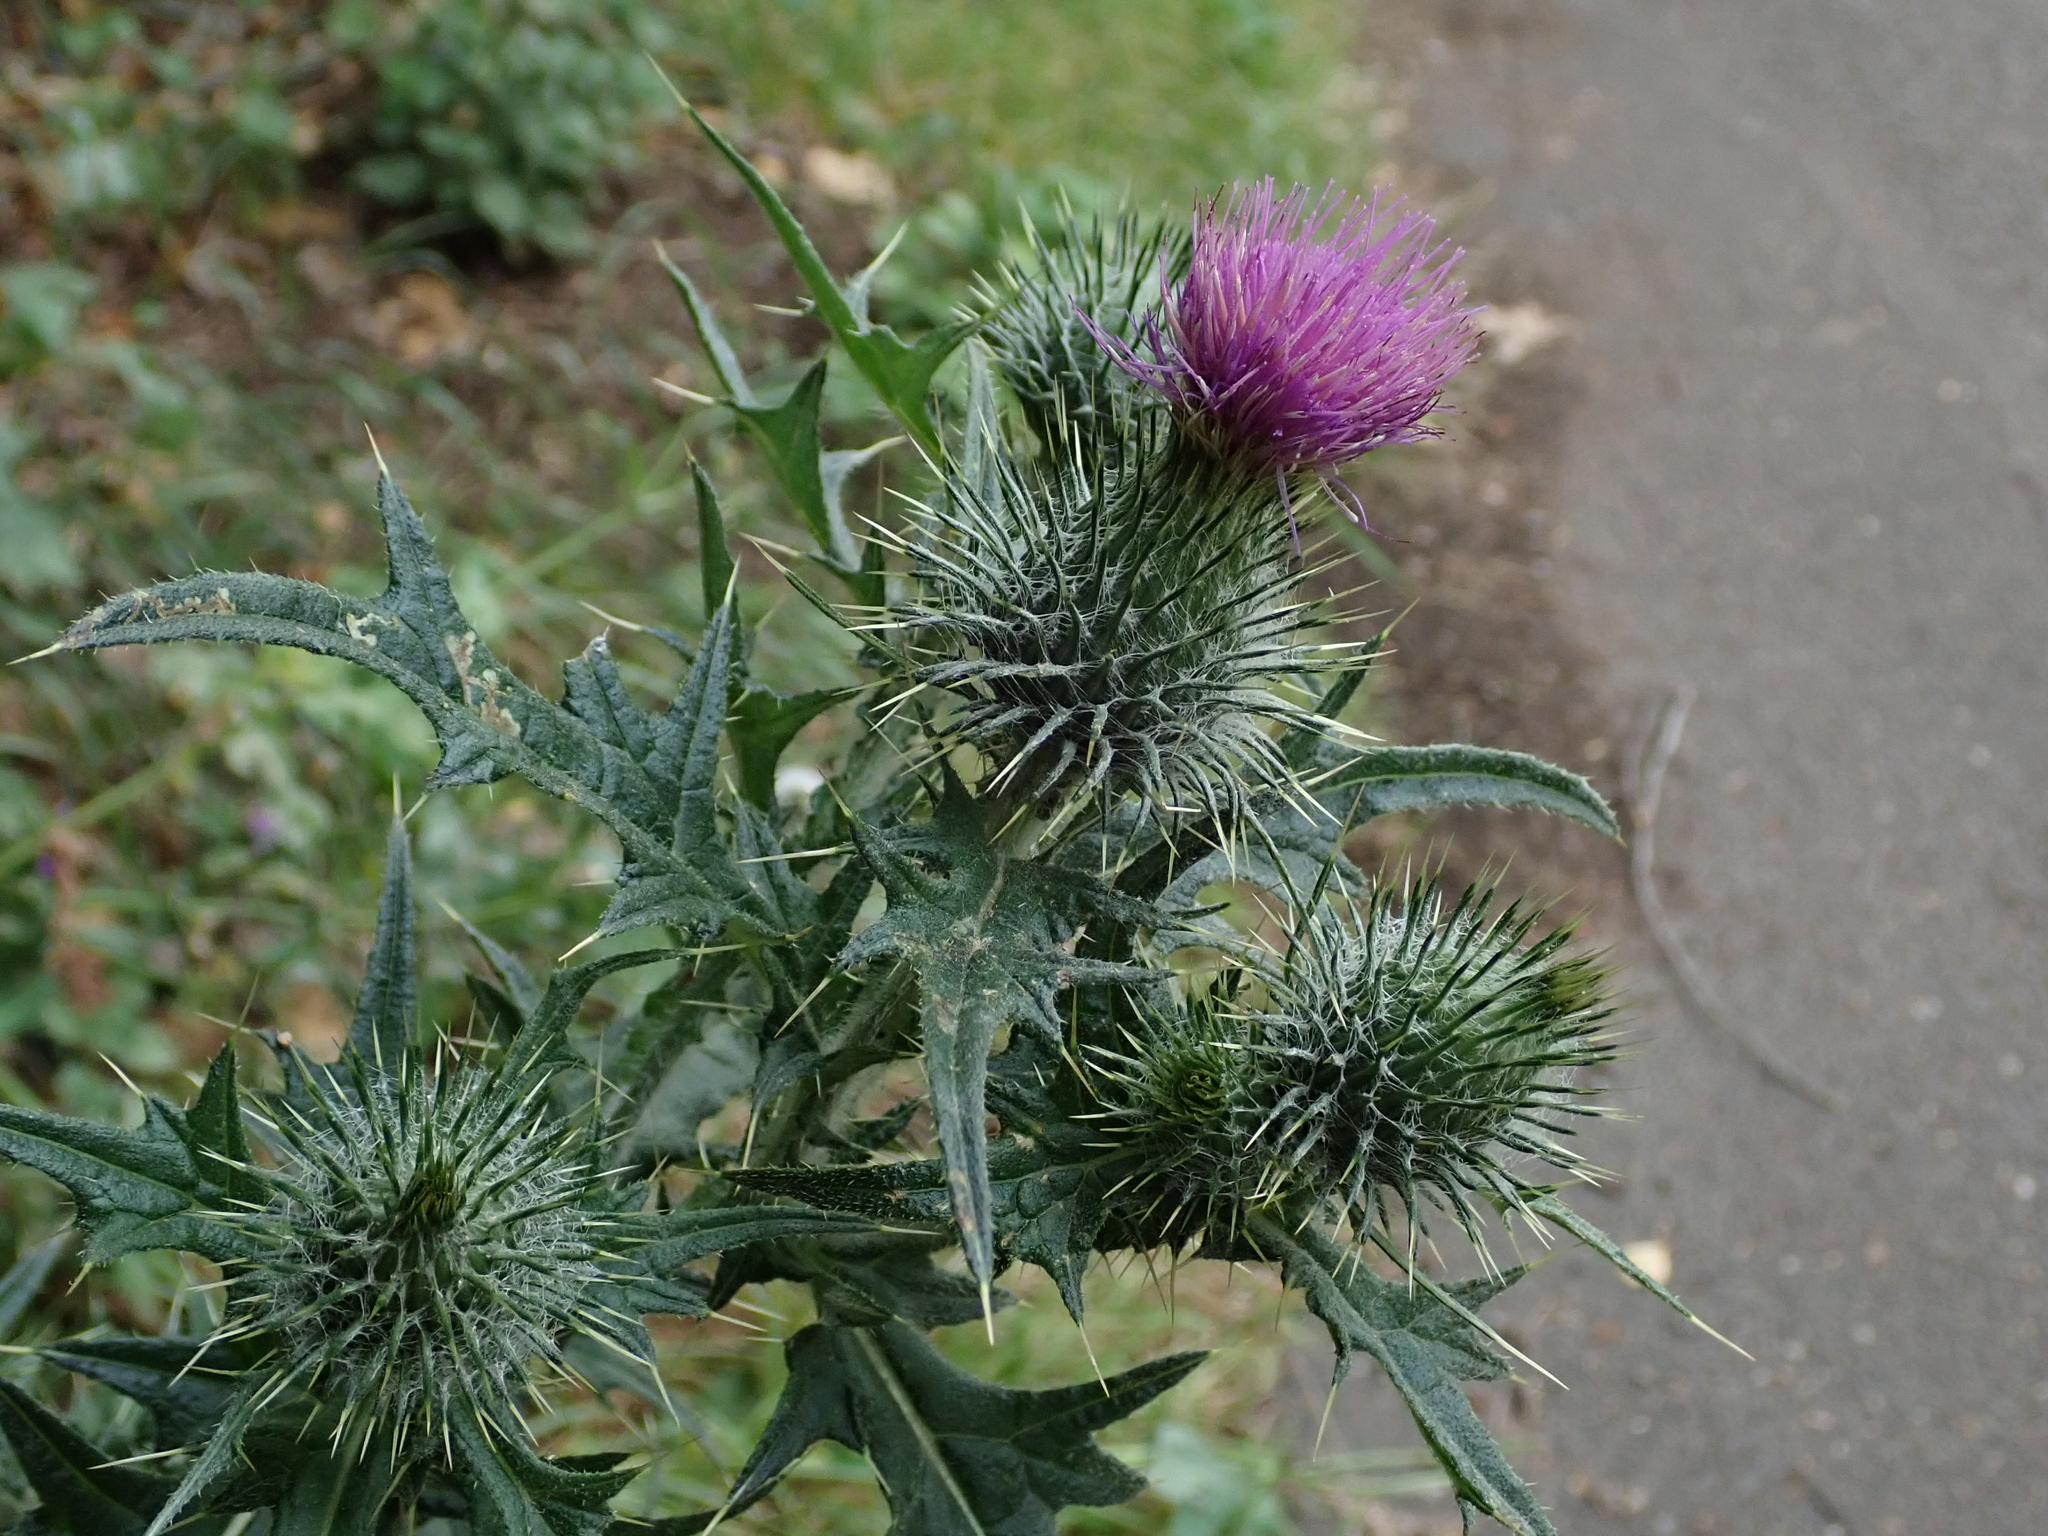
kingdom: Plantae
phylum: Tracheophyta
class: Magnoliopsida
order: Asterales
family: Asteraceae
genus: Cirsium
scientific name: Cirsium vulgare
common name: Bull thistle
